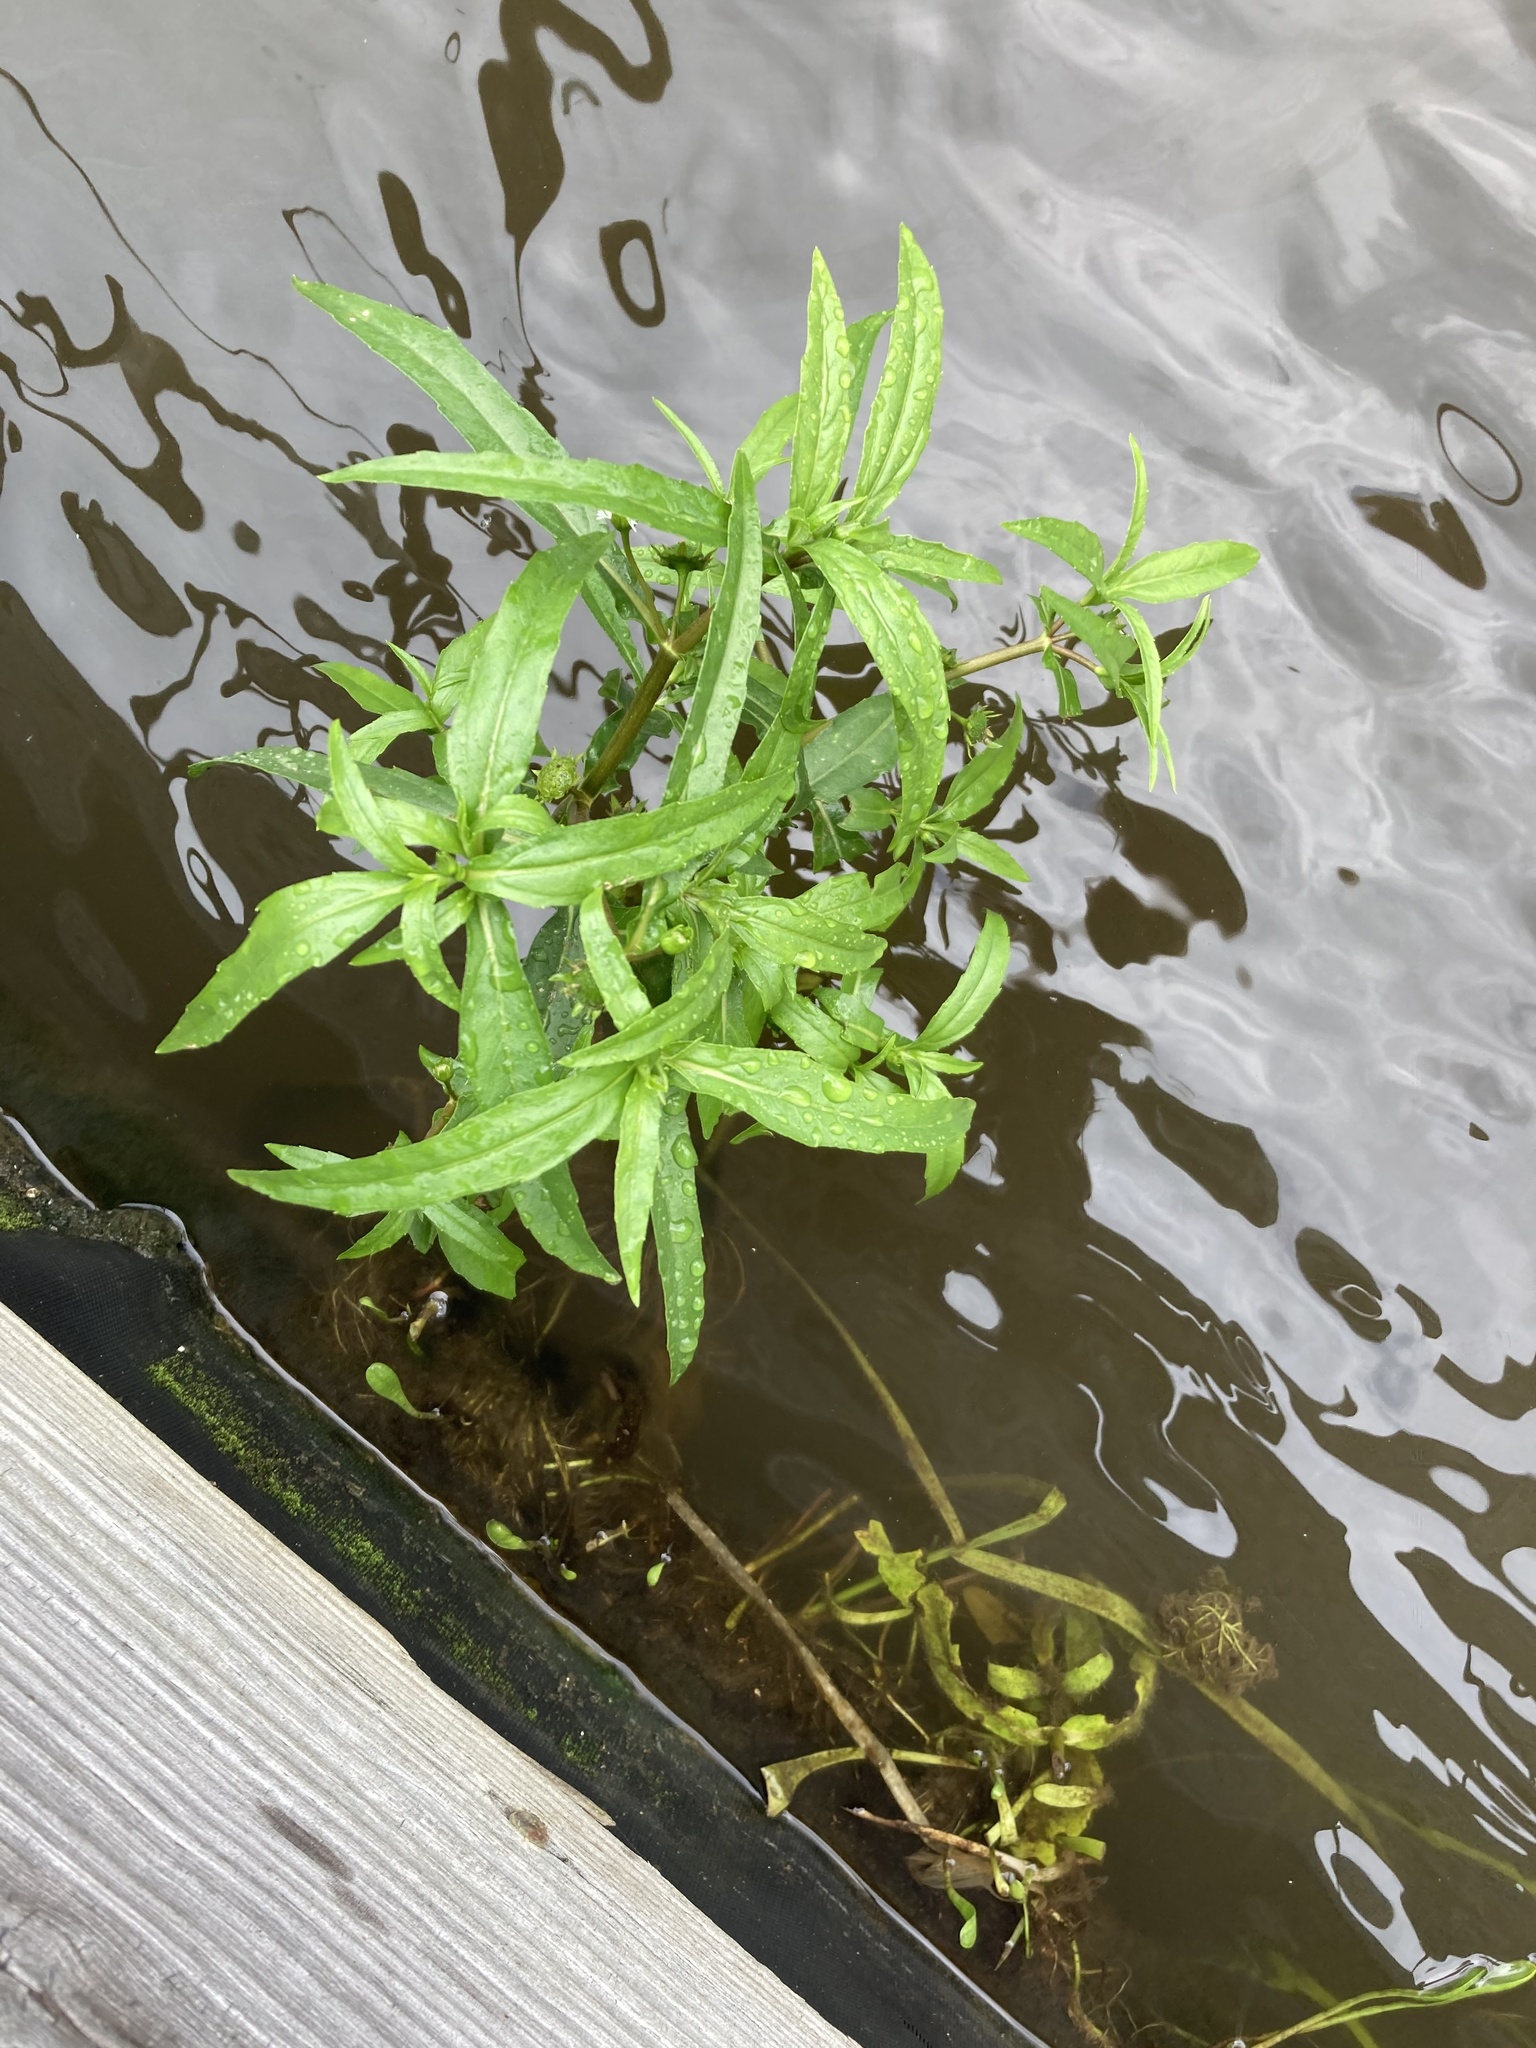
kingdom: Plantae
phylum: Tracheophyta
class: Magnoliopsida
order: Asterales
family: Asteraceae
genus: Eclipta
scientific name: Eclipta prostrata
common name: False daisy
